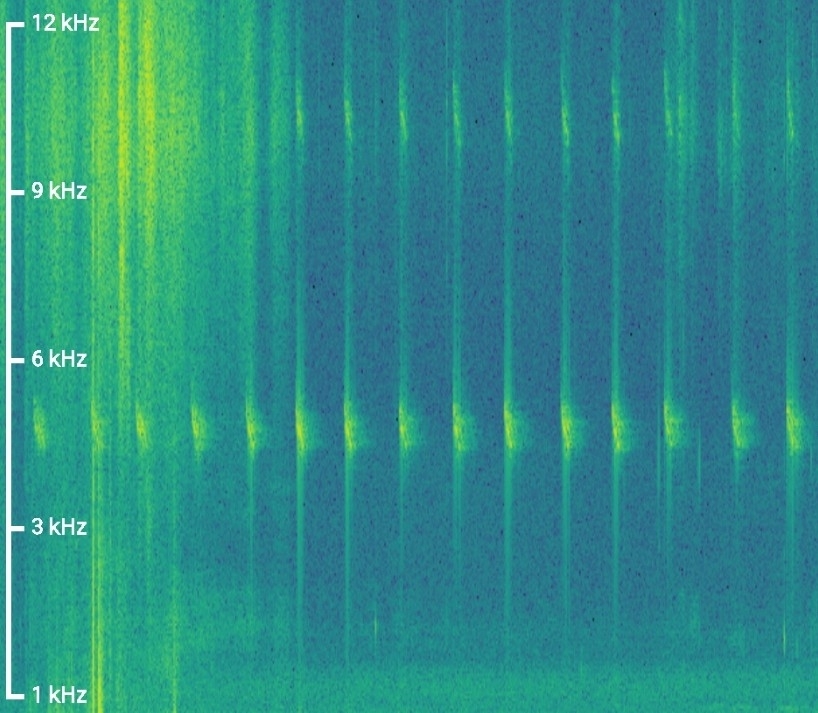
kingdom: Animalia
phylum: Chordata
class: Aves
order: Passeriformes
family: Prunellidae
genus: Prunella
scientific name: Prunella modularis
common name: Dunnock
